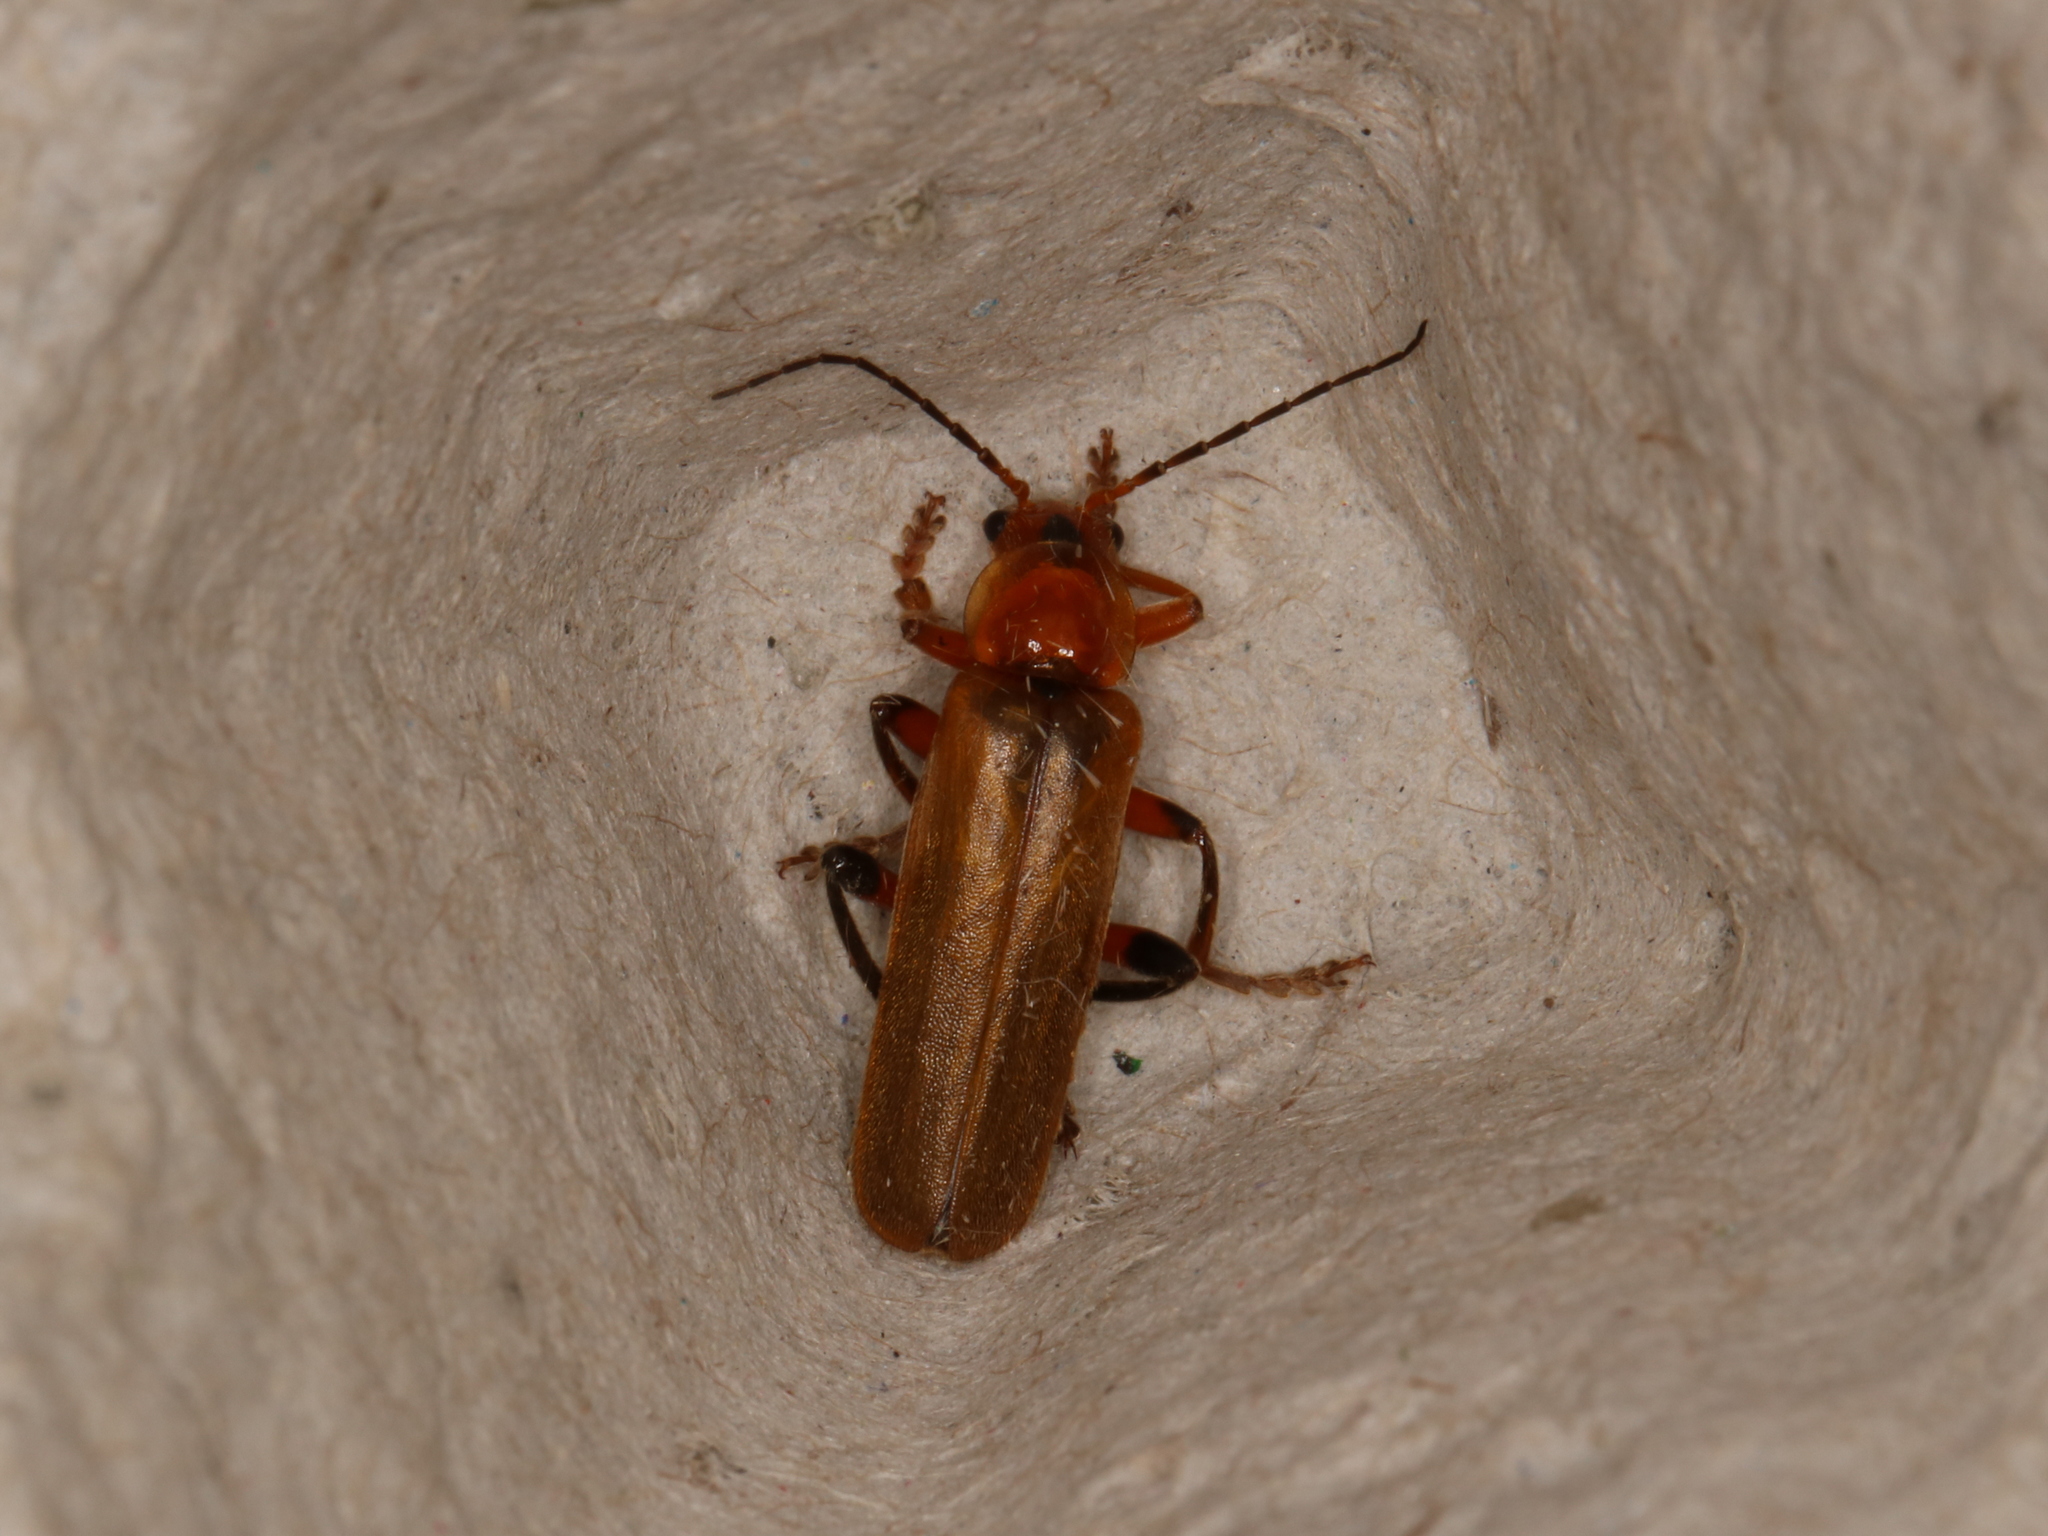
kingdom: Animalia
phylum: Arthropoda
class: Insecta
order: Coleoptera
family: Cantharidae
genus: Cantharis
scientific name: Cantharis livida
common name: Livid soldier beetle
